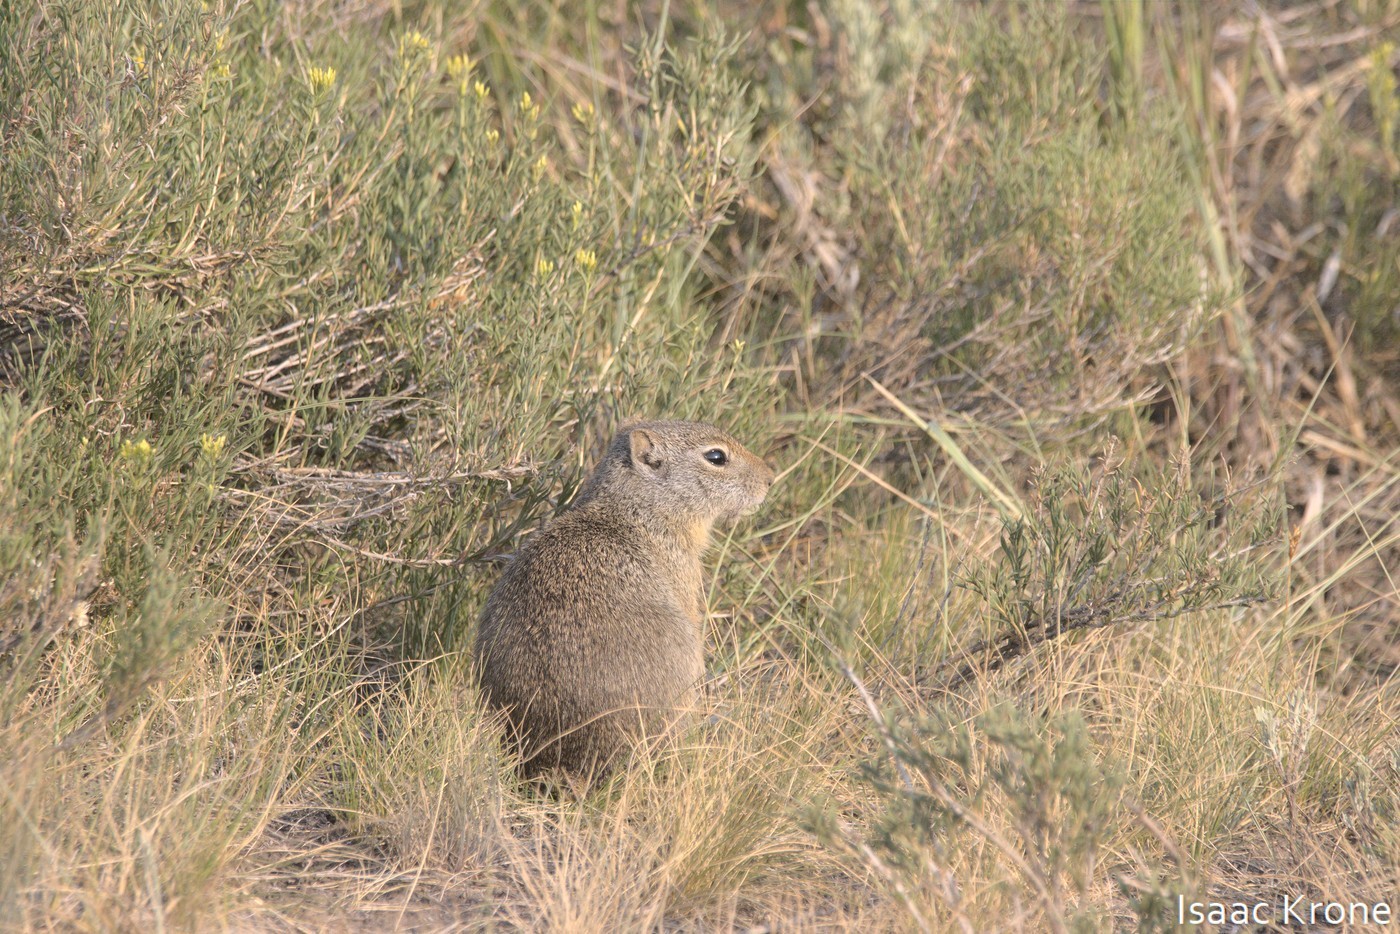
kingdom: Animalia
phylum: Chordata
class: Mammalia
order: Rodentia
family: Sciuridae
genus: Urocitellus
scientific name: Urocitellus armatus
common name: Uinta ground squirrel
